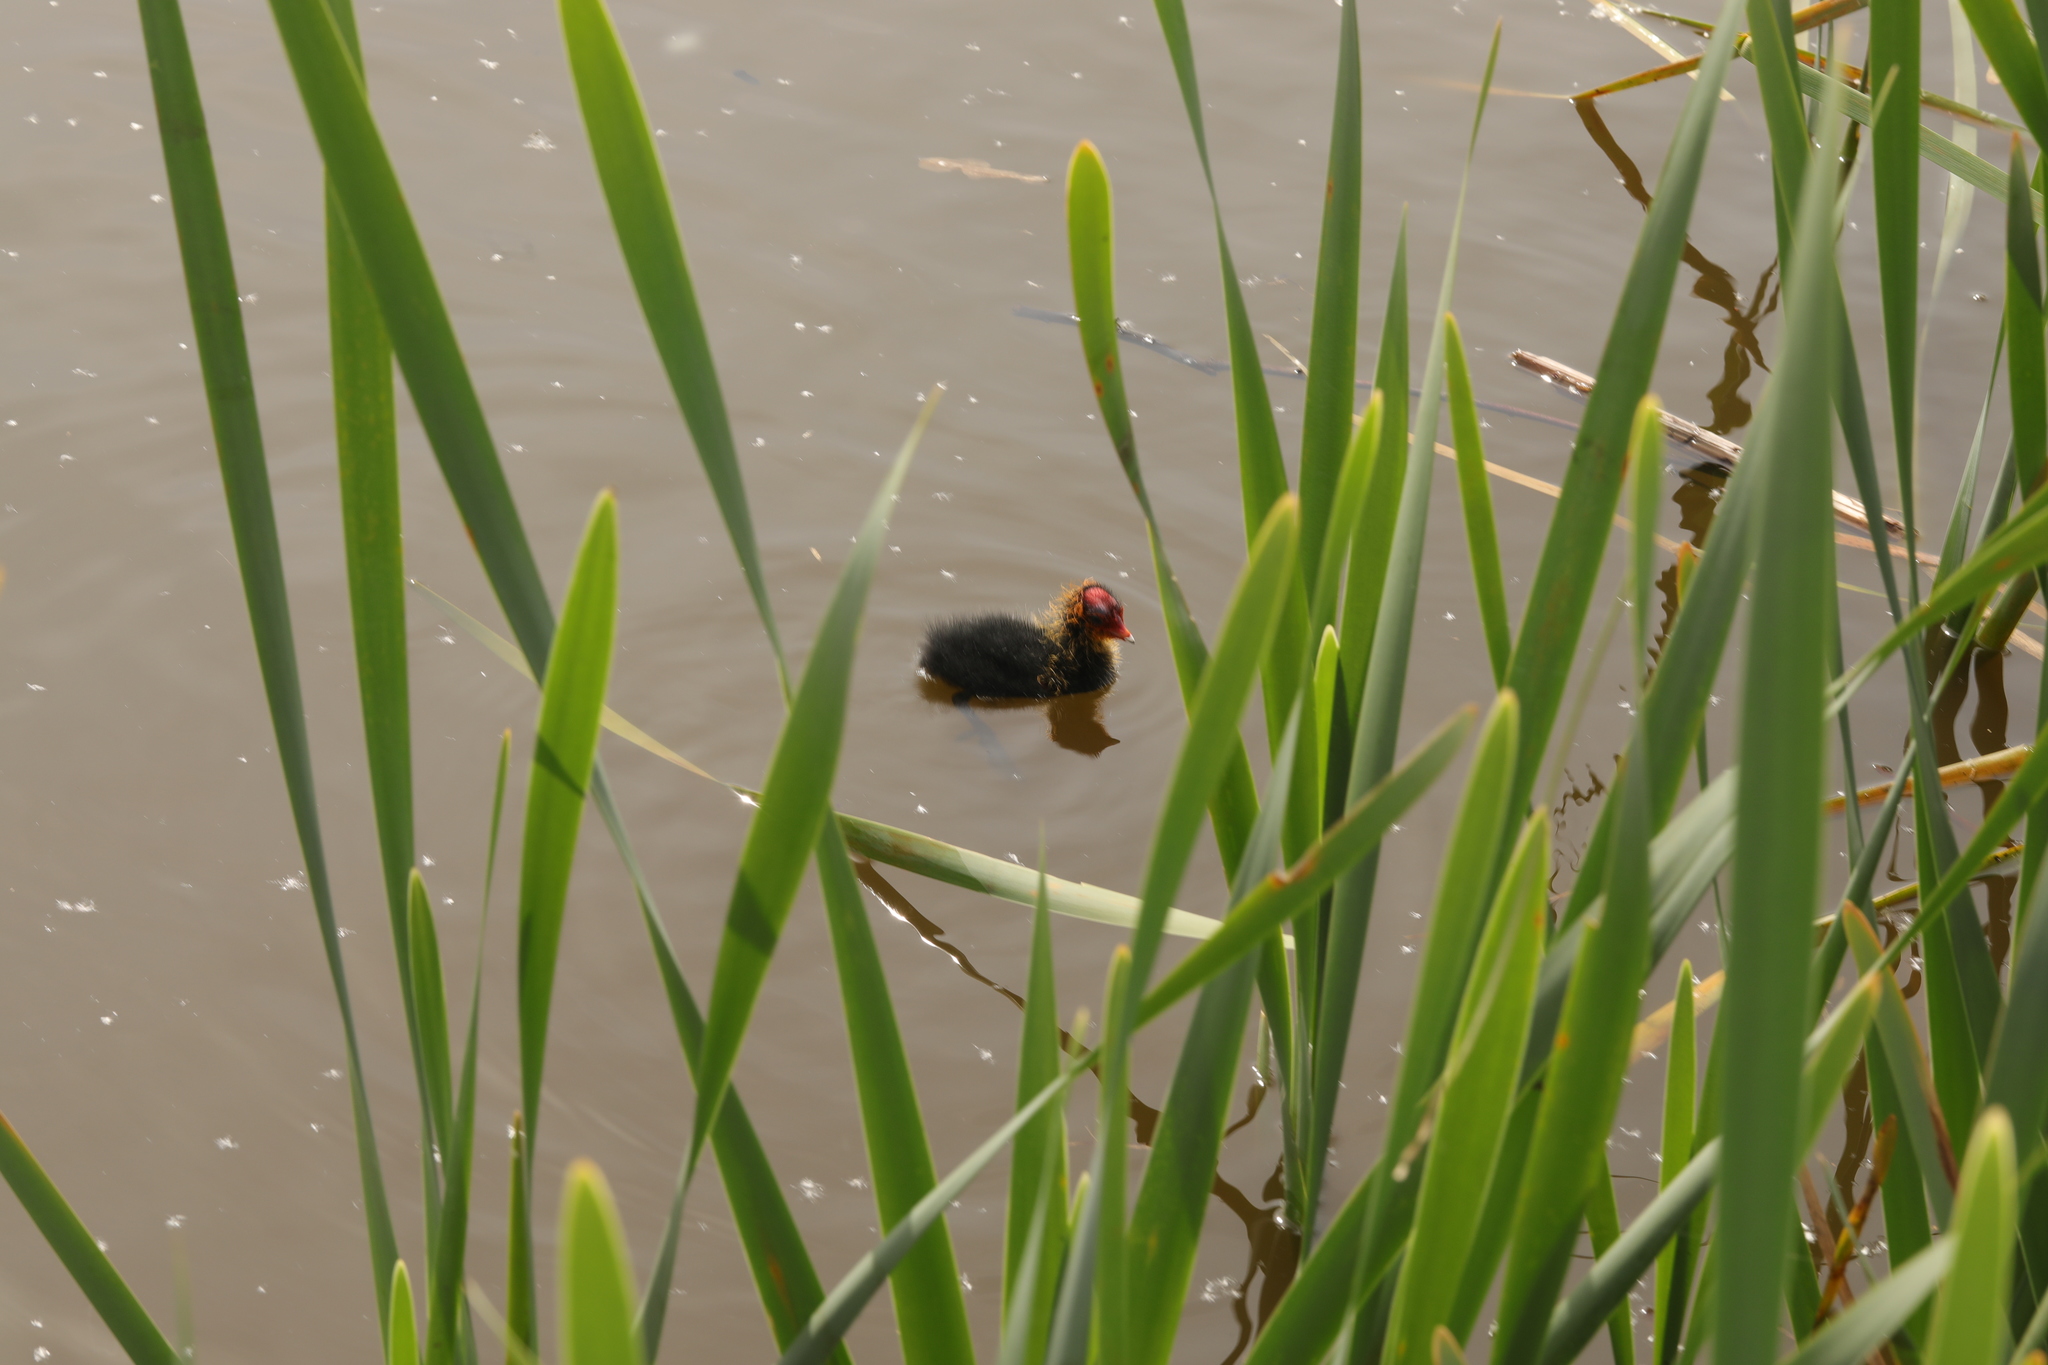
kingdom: Animalia
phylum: Chordata
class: Aves
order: Gruiformes
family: Rallidae
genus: Fulica
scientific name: Fulica atra
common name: Eurasian coot
